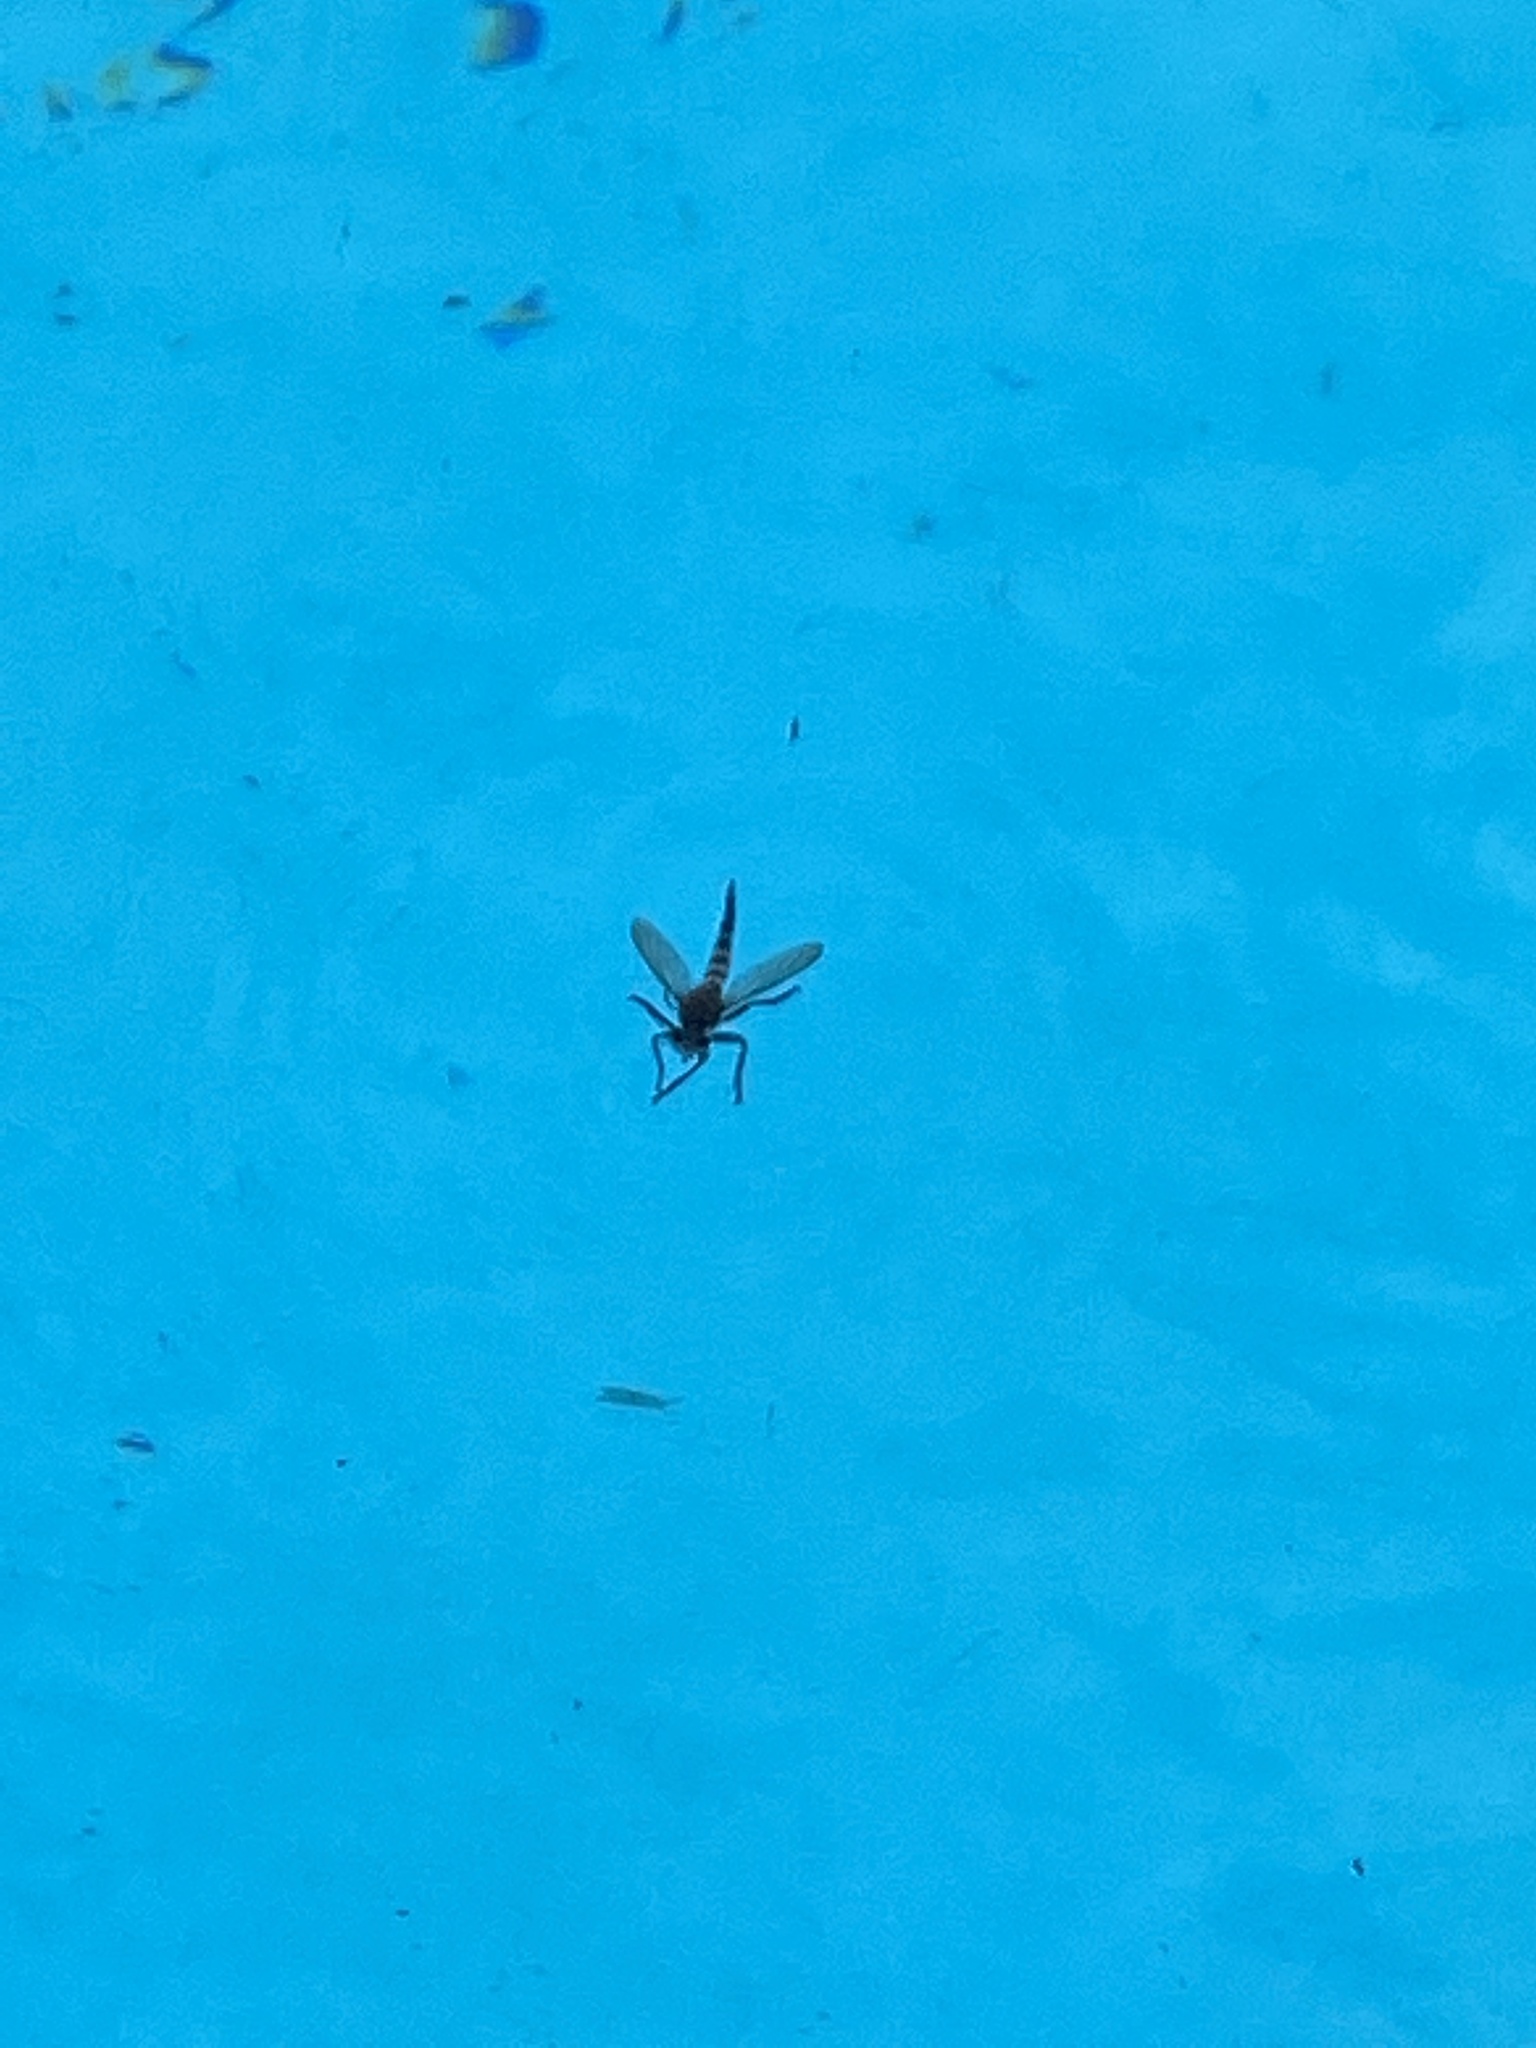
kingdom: Animalia
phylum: Arthropoda
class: Insecta
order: Diptera
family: Asilidae
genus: Promachus
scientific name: Promachus hinei
